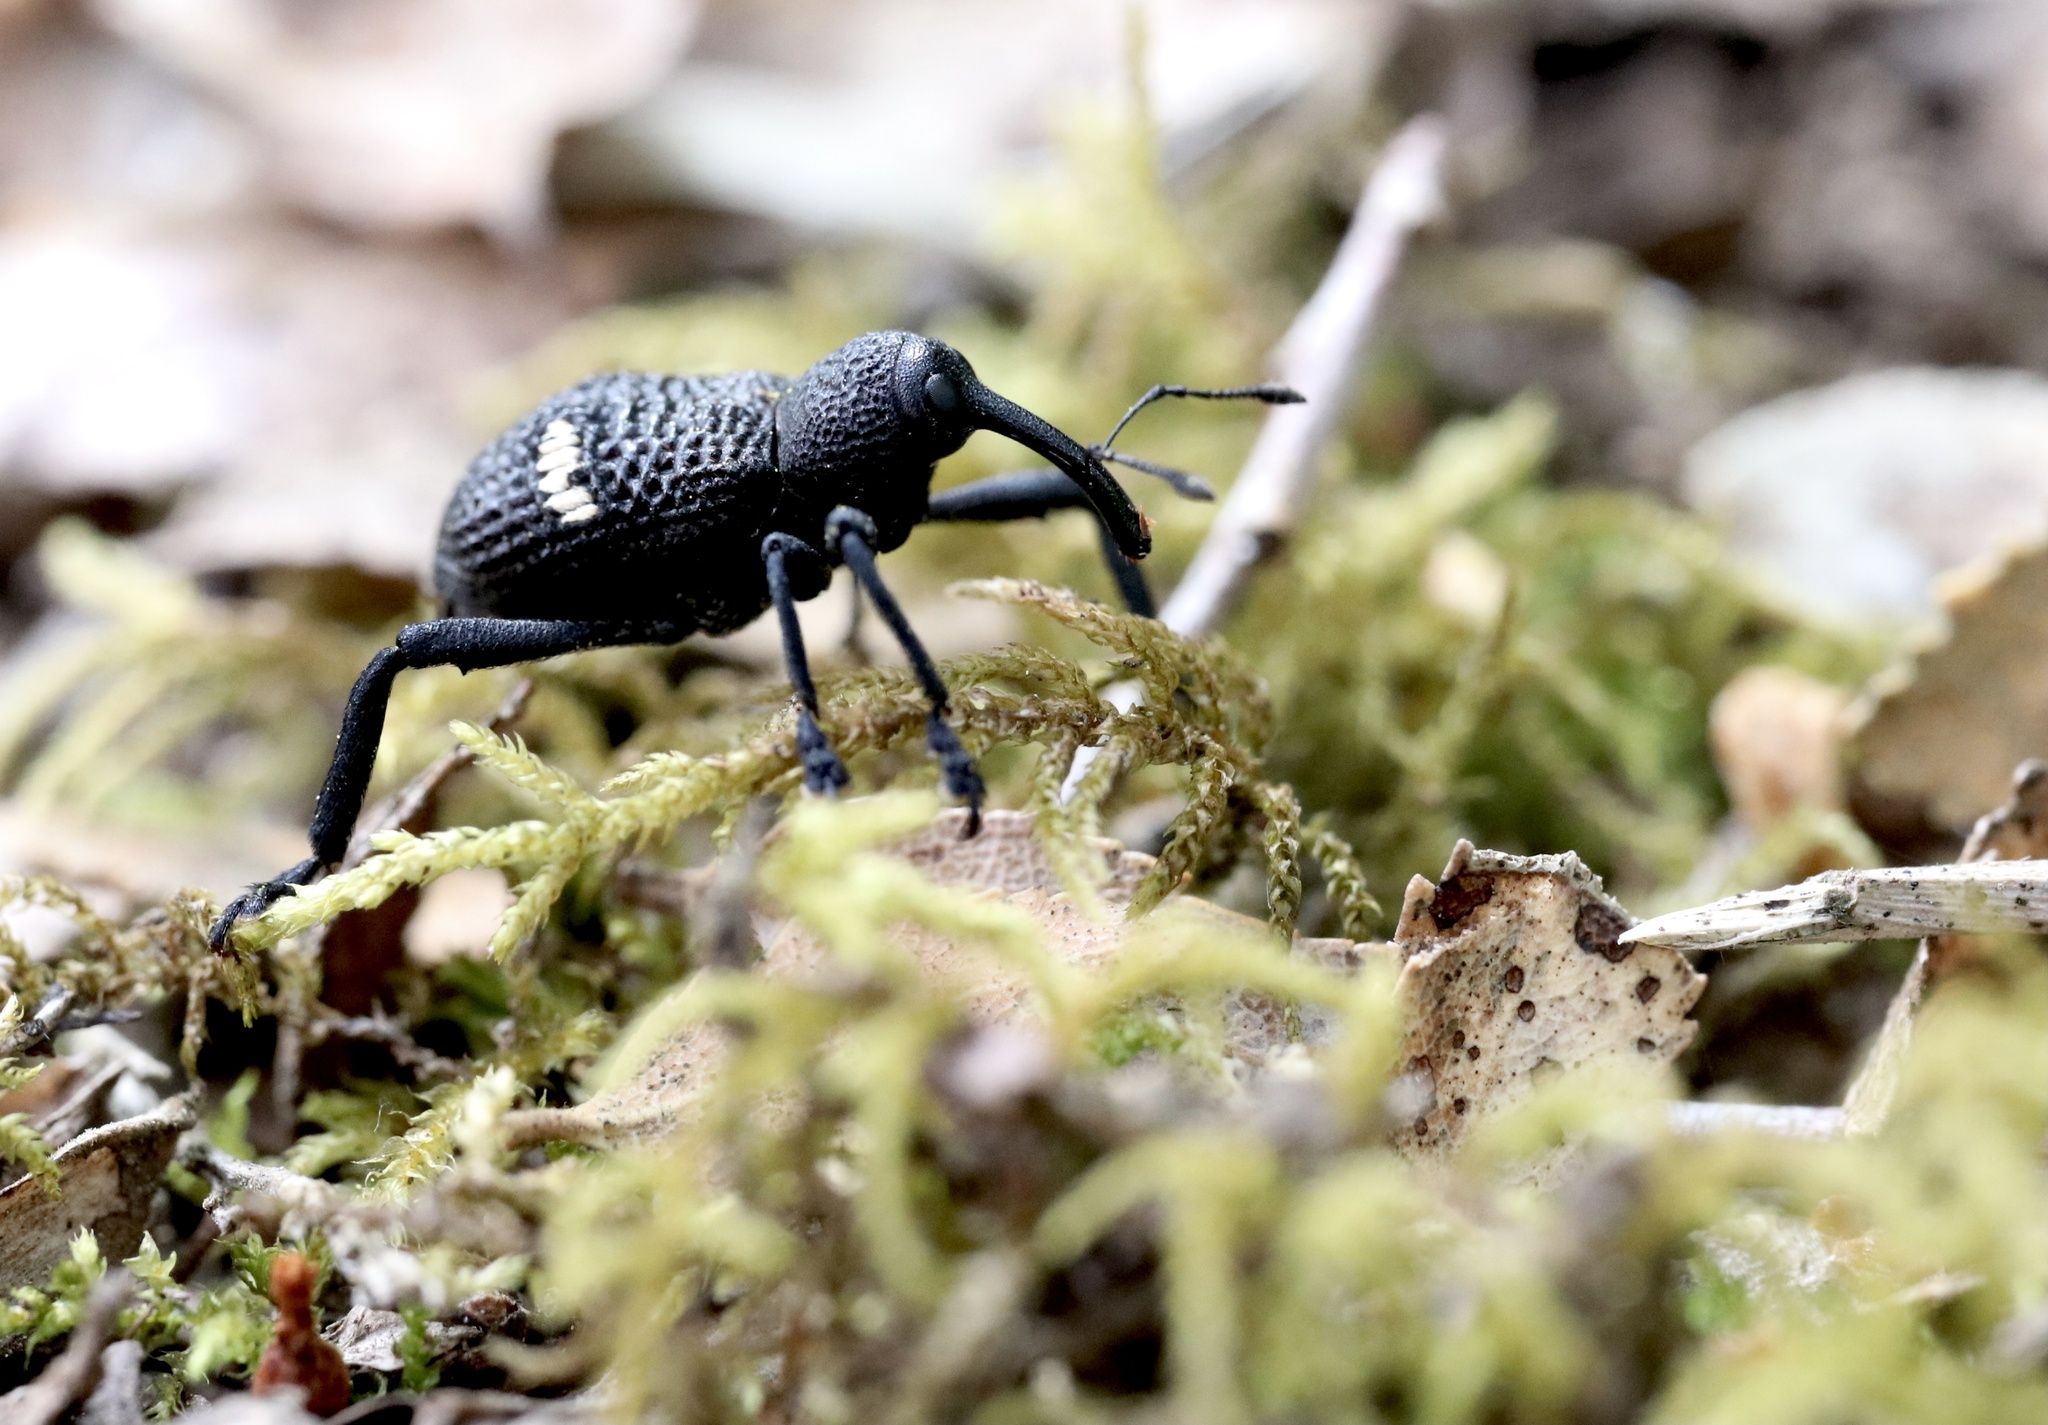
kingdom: Animalia
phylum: Arthropoda
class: Insecta
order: Coleoptera
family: Curculionidae
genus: Tartarisus
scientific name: Tartarisus
